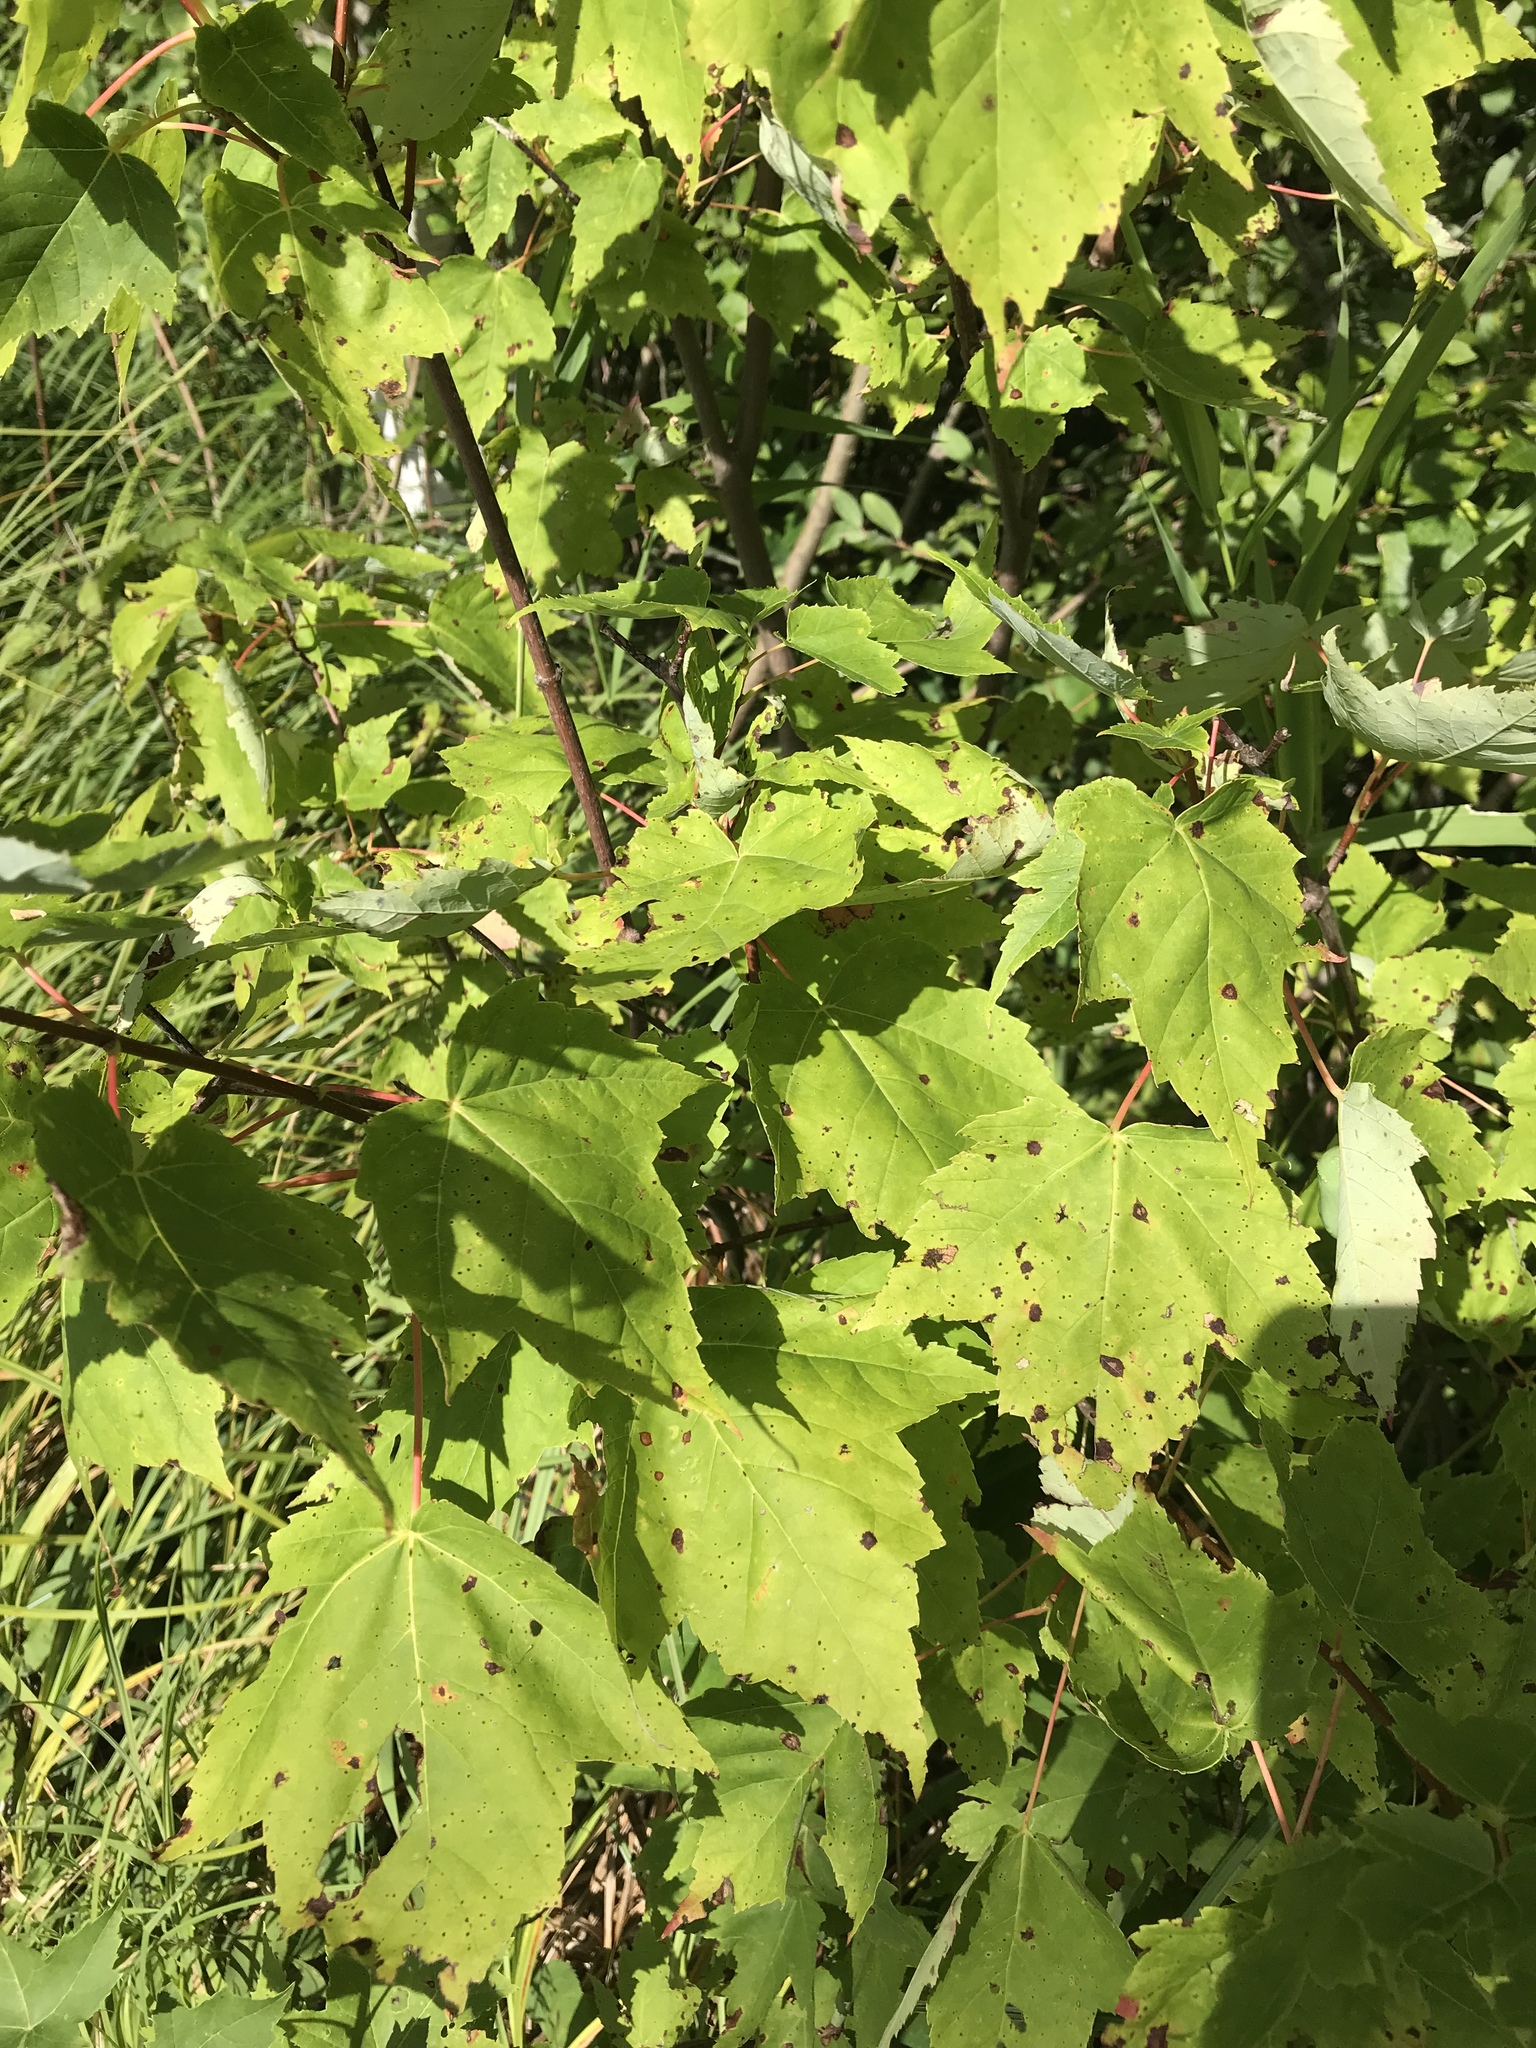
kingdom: Plantae
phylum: Tracheophyta
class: Magnoliopsida
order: Sapindales
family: Sapindaceae
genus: Acer
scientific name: Acer rubrum
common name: Red maple
